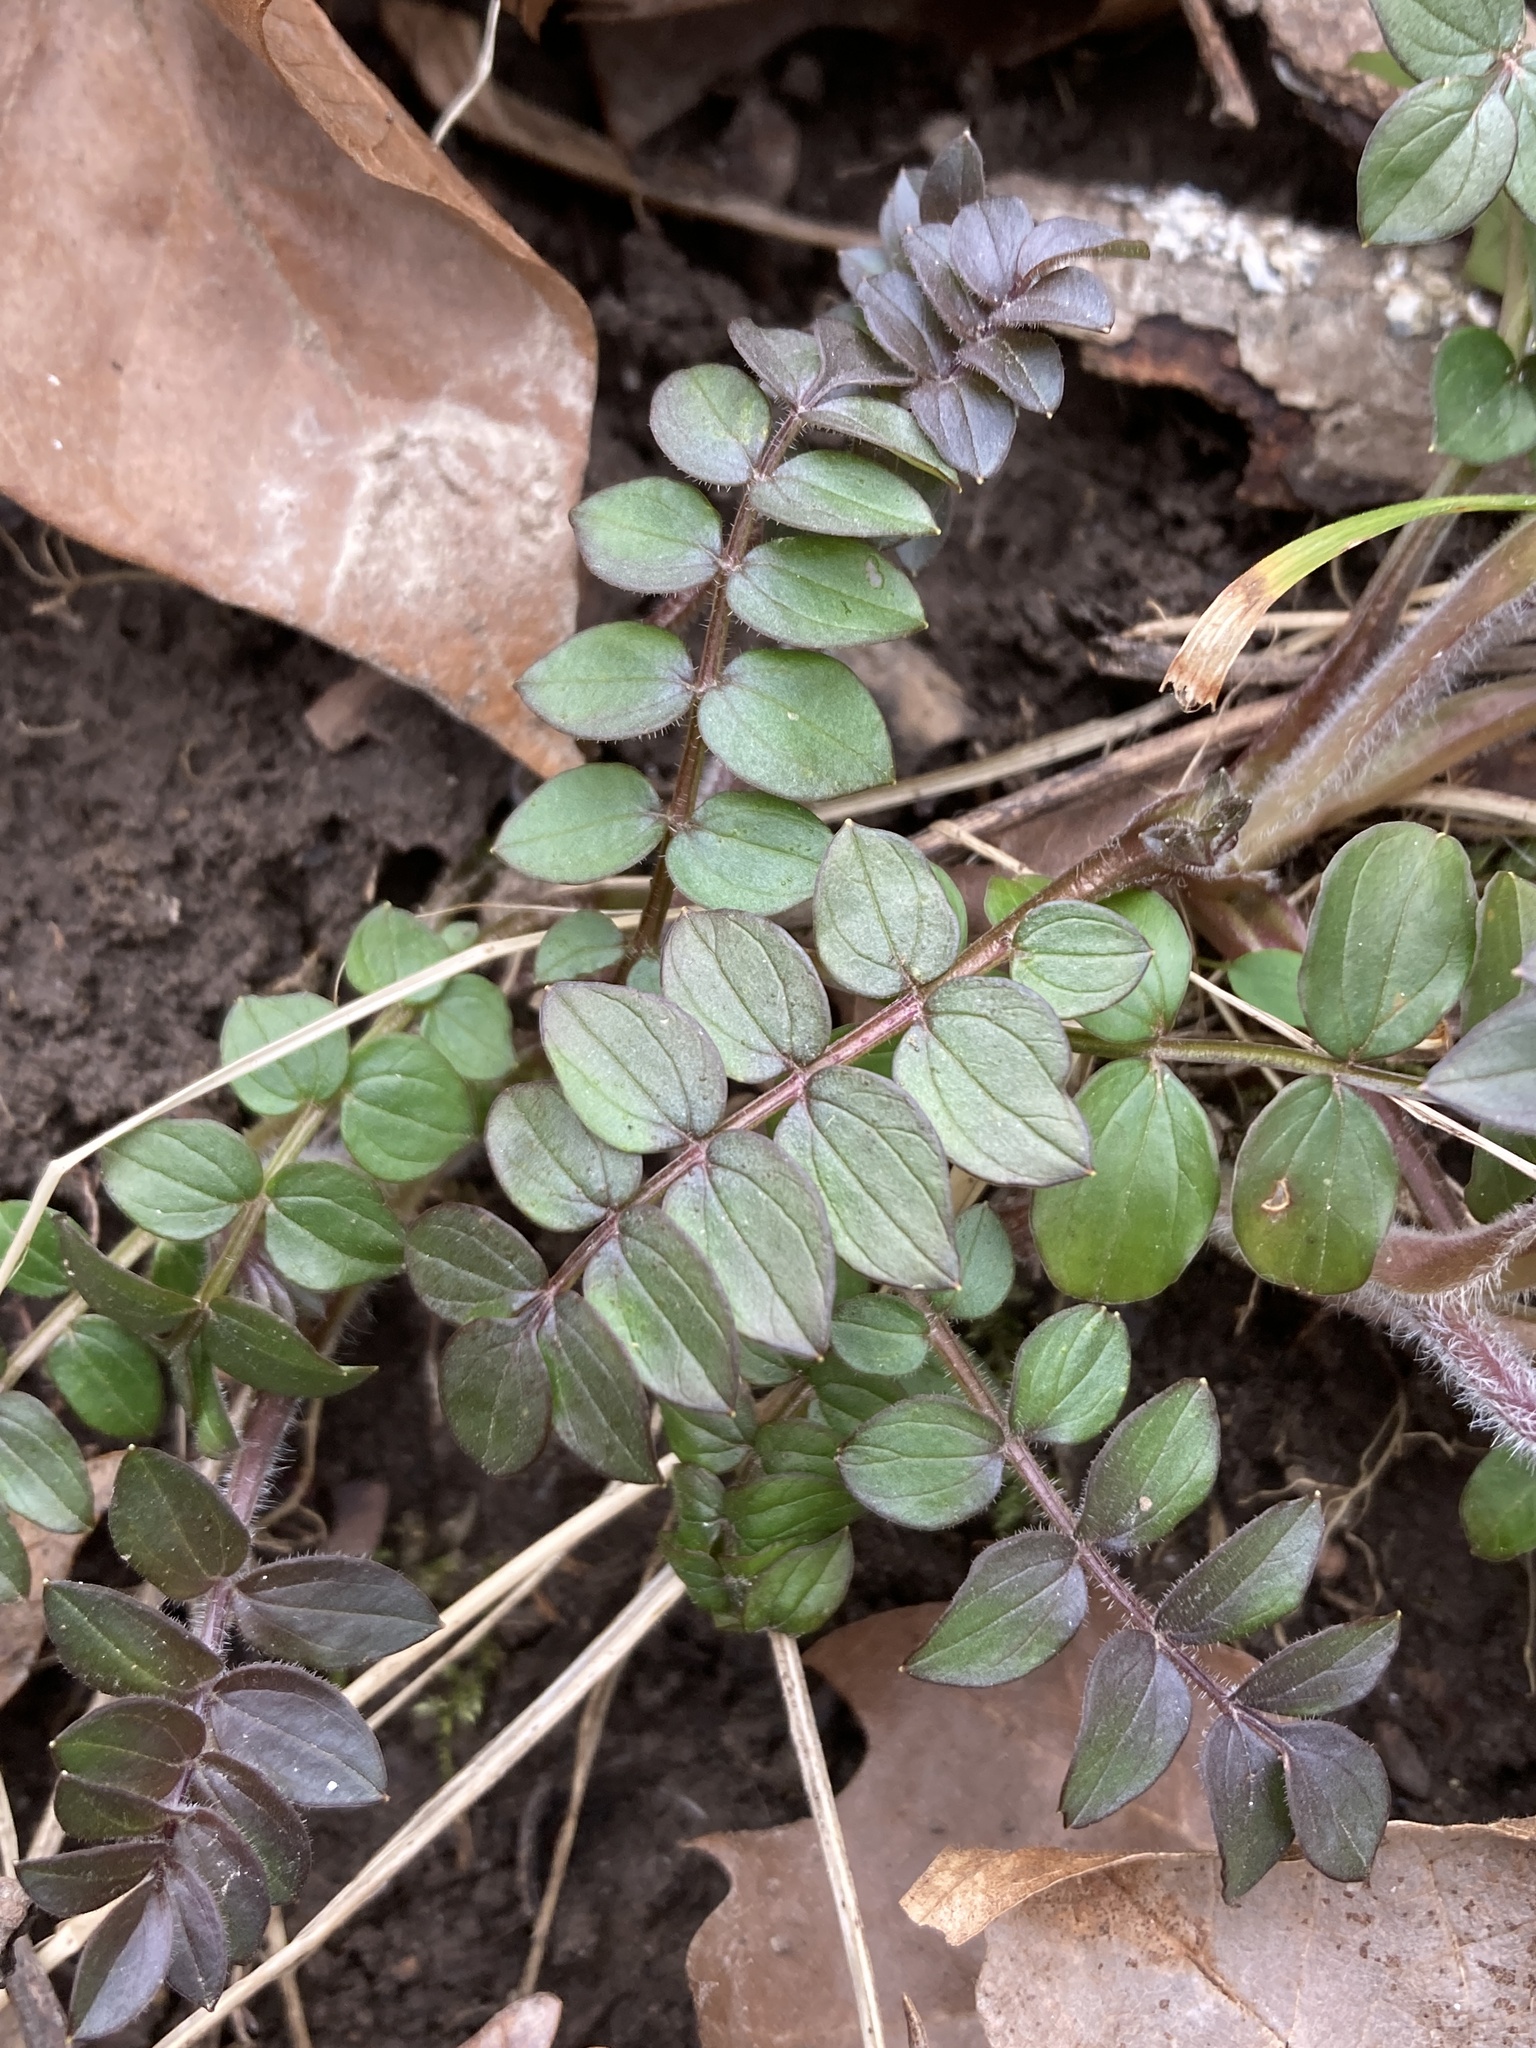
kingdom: Plantae
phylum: Tracheophyta
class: Magnoliopsida
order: Ericales
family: Polemoniaceae
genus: Polemonium
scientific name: Polemonium reptans
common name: Creeping jacob's-ladder
